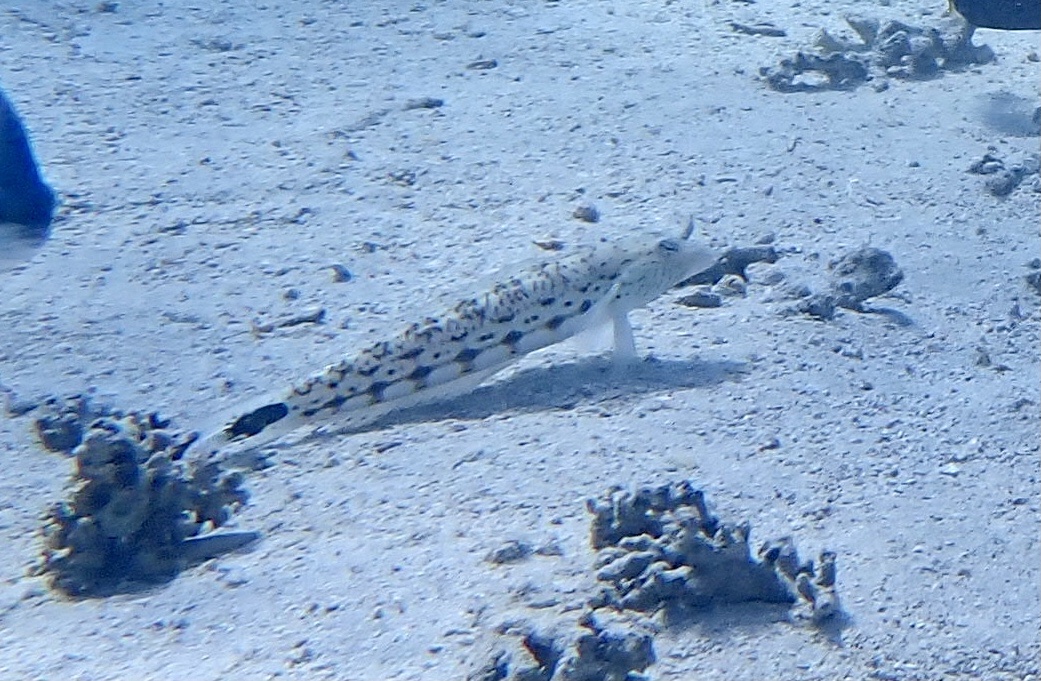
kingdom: Animalia
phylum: Chordata
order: Perciformes
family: Pinguipedidae
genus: Parapercis
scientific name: Parapercis hexophtalma
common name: Speckled sandperch
